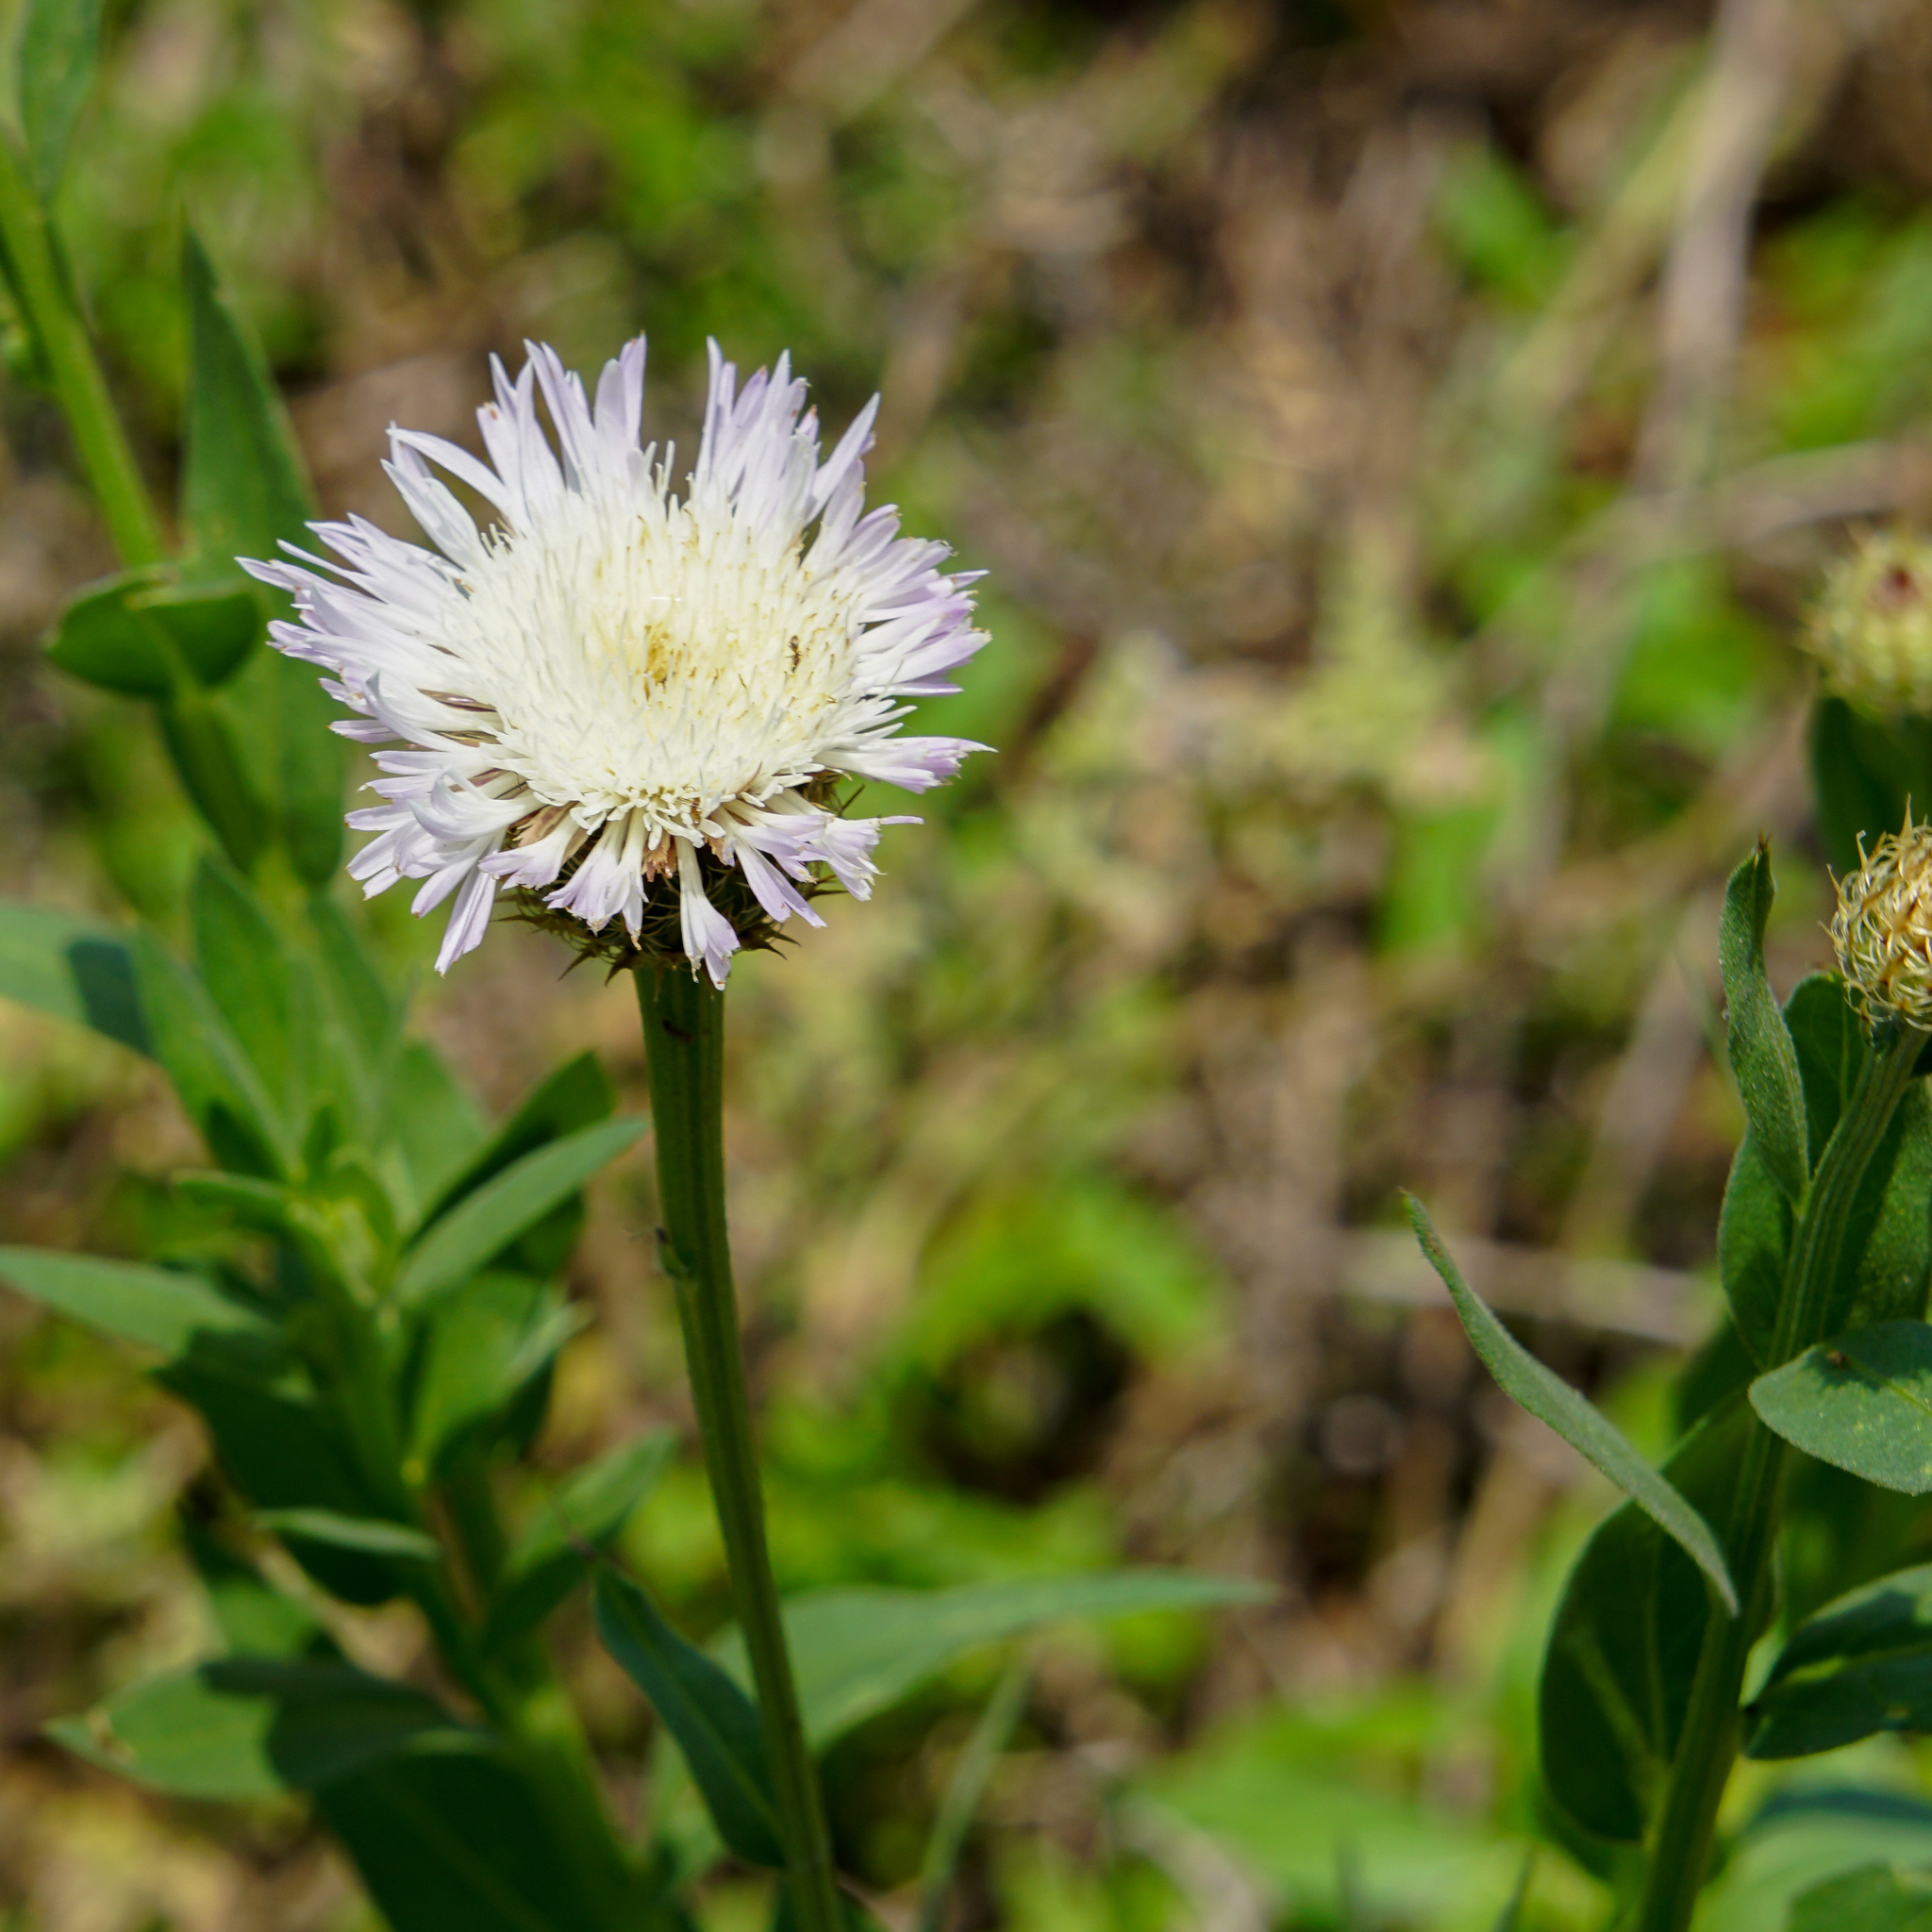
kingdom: Plantae
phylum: Tracheophyta
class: Magnoliopsida
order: Asterales
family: Asteraceae
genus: Plectocephalus
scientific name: Plectocephalus americanus
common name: American basket-flower
